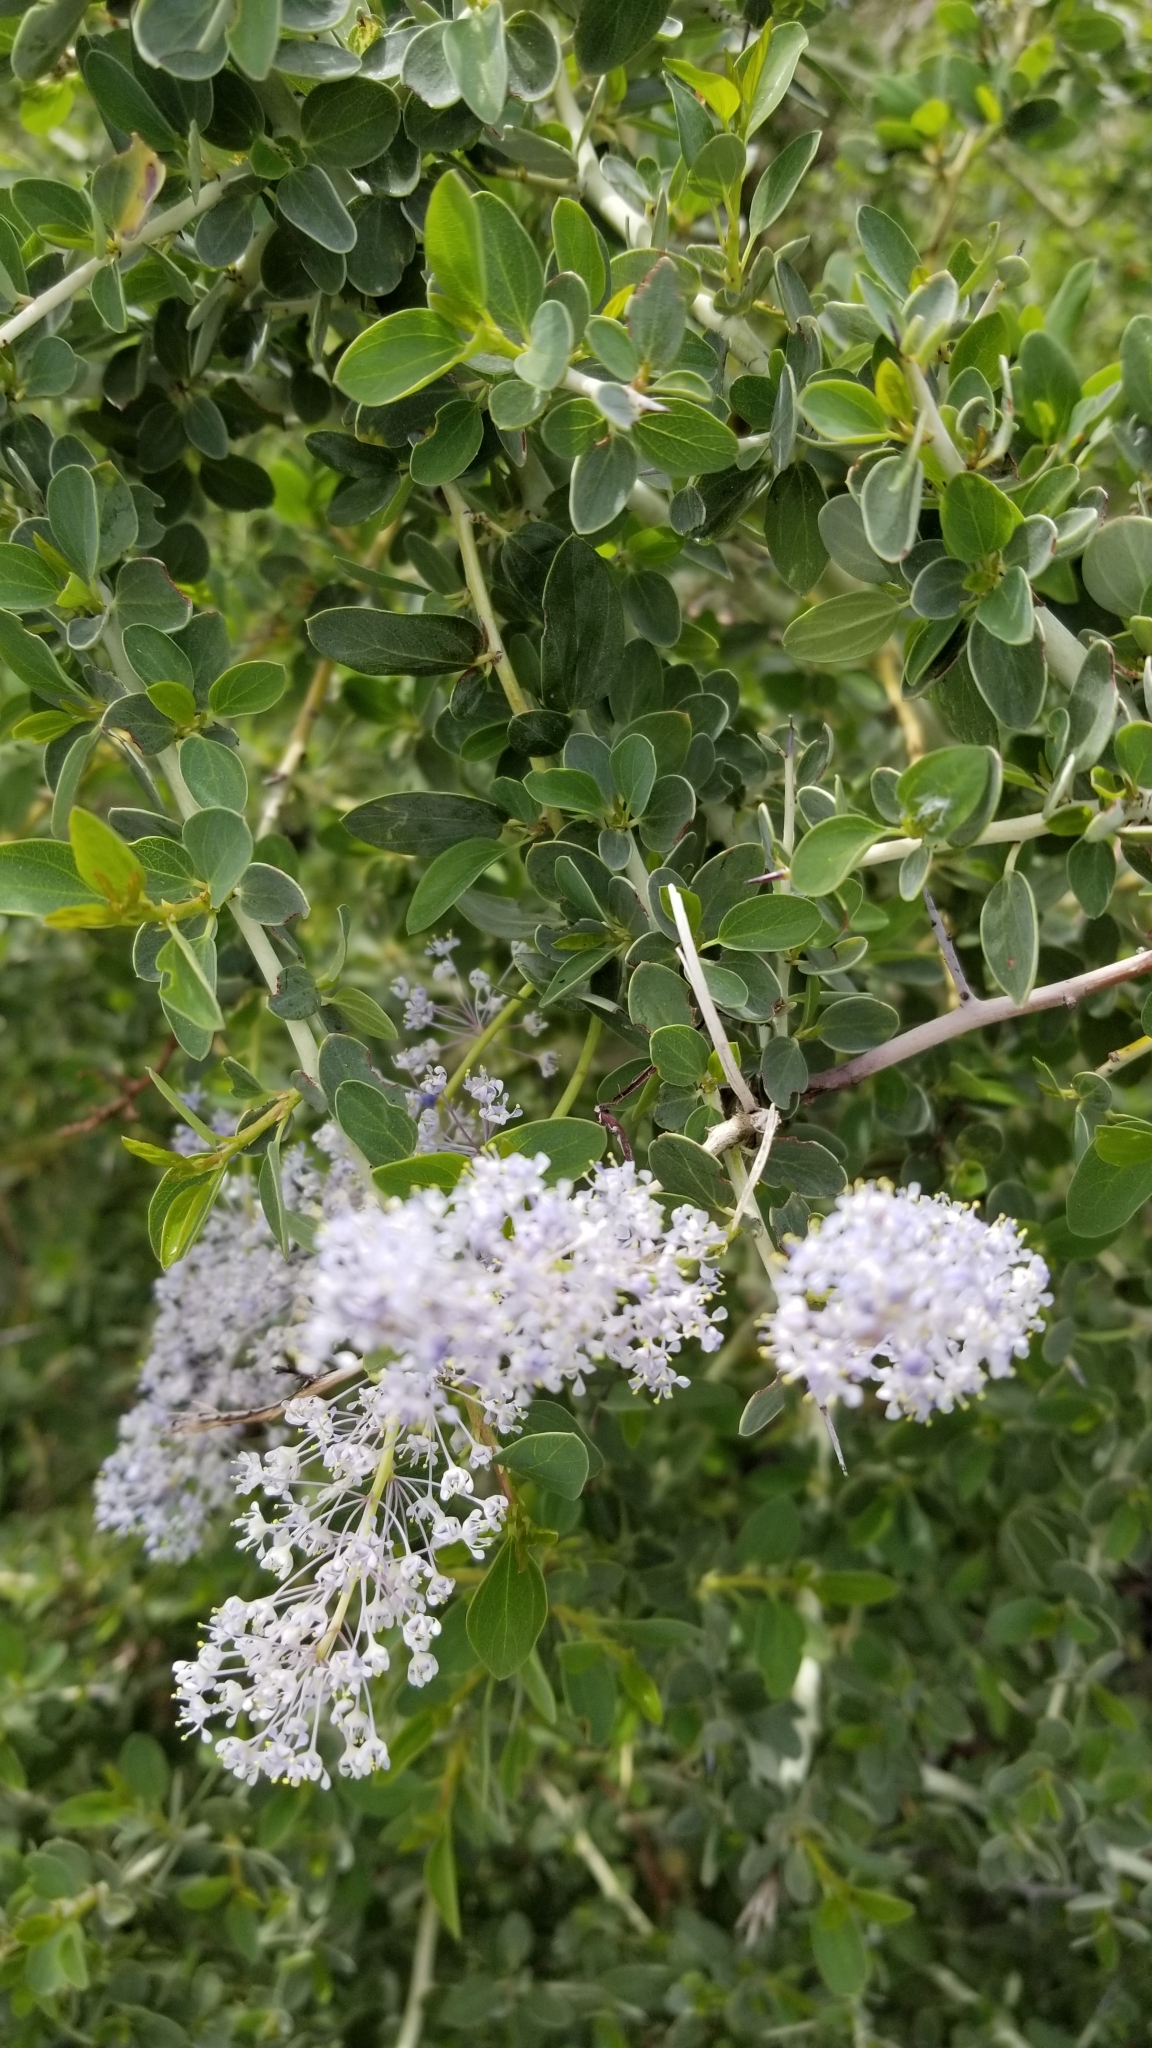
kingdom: Plantae
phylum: Tracheophyta
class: Magnoliopsida
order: Rosales
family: Rhamnaceae
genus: Ceanothus
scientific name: Ceanothus leucodermis
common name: Chaparral whitethorn
